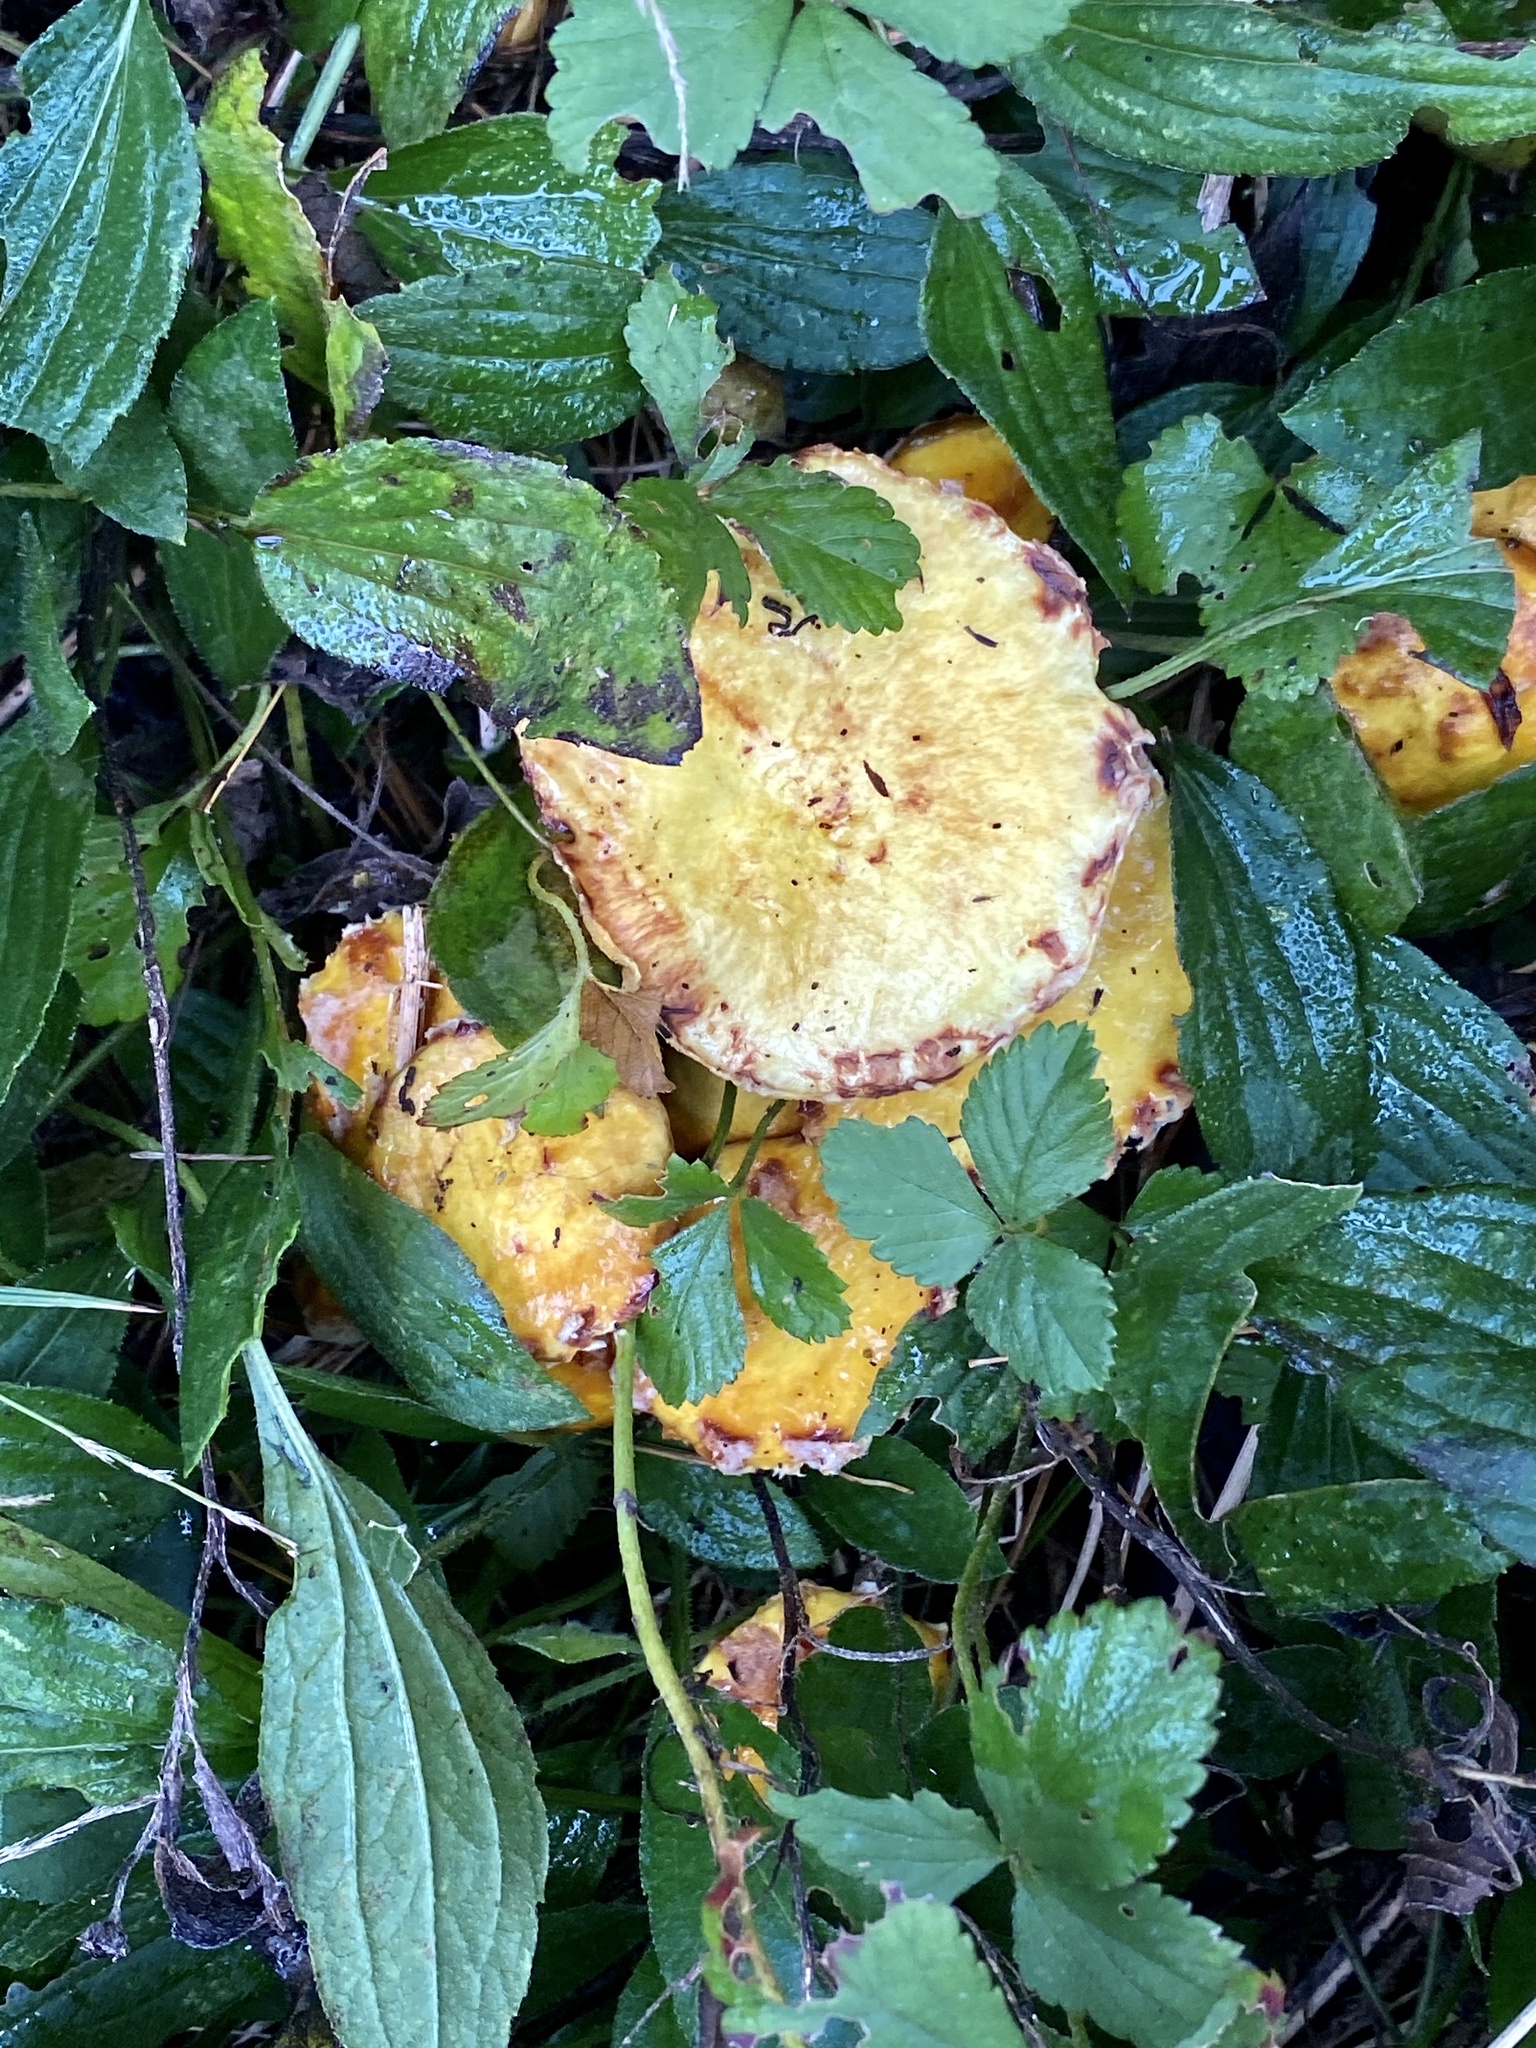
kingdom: Fungi
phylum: Basidiomycota
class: Agaricomycetes
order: Boletales
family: Suillaceae
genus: Suillus
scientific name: Suillus americanus
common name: Chicken fat mushroom
